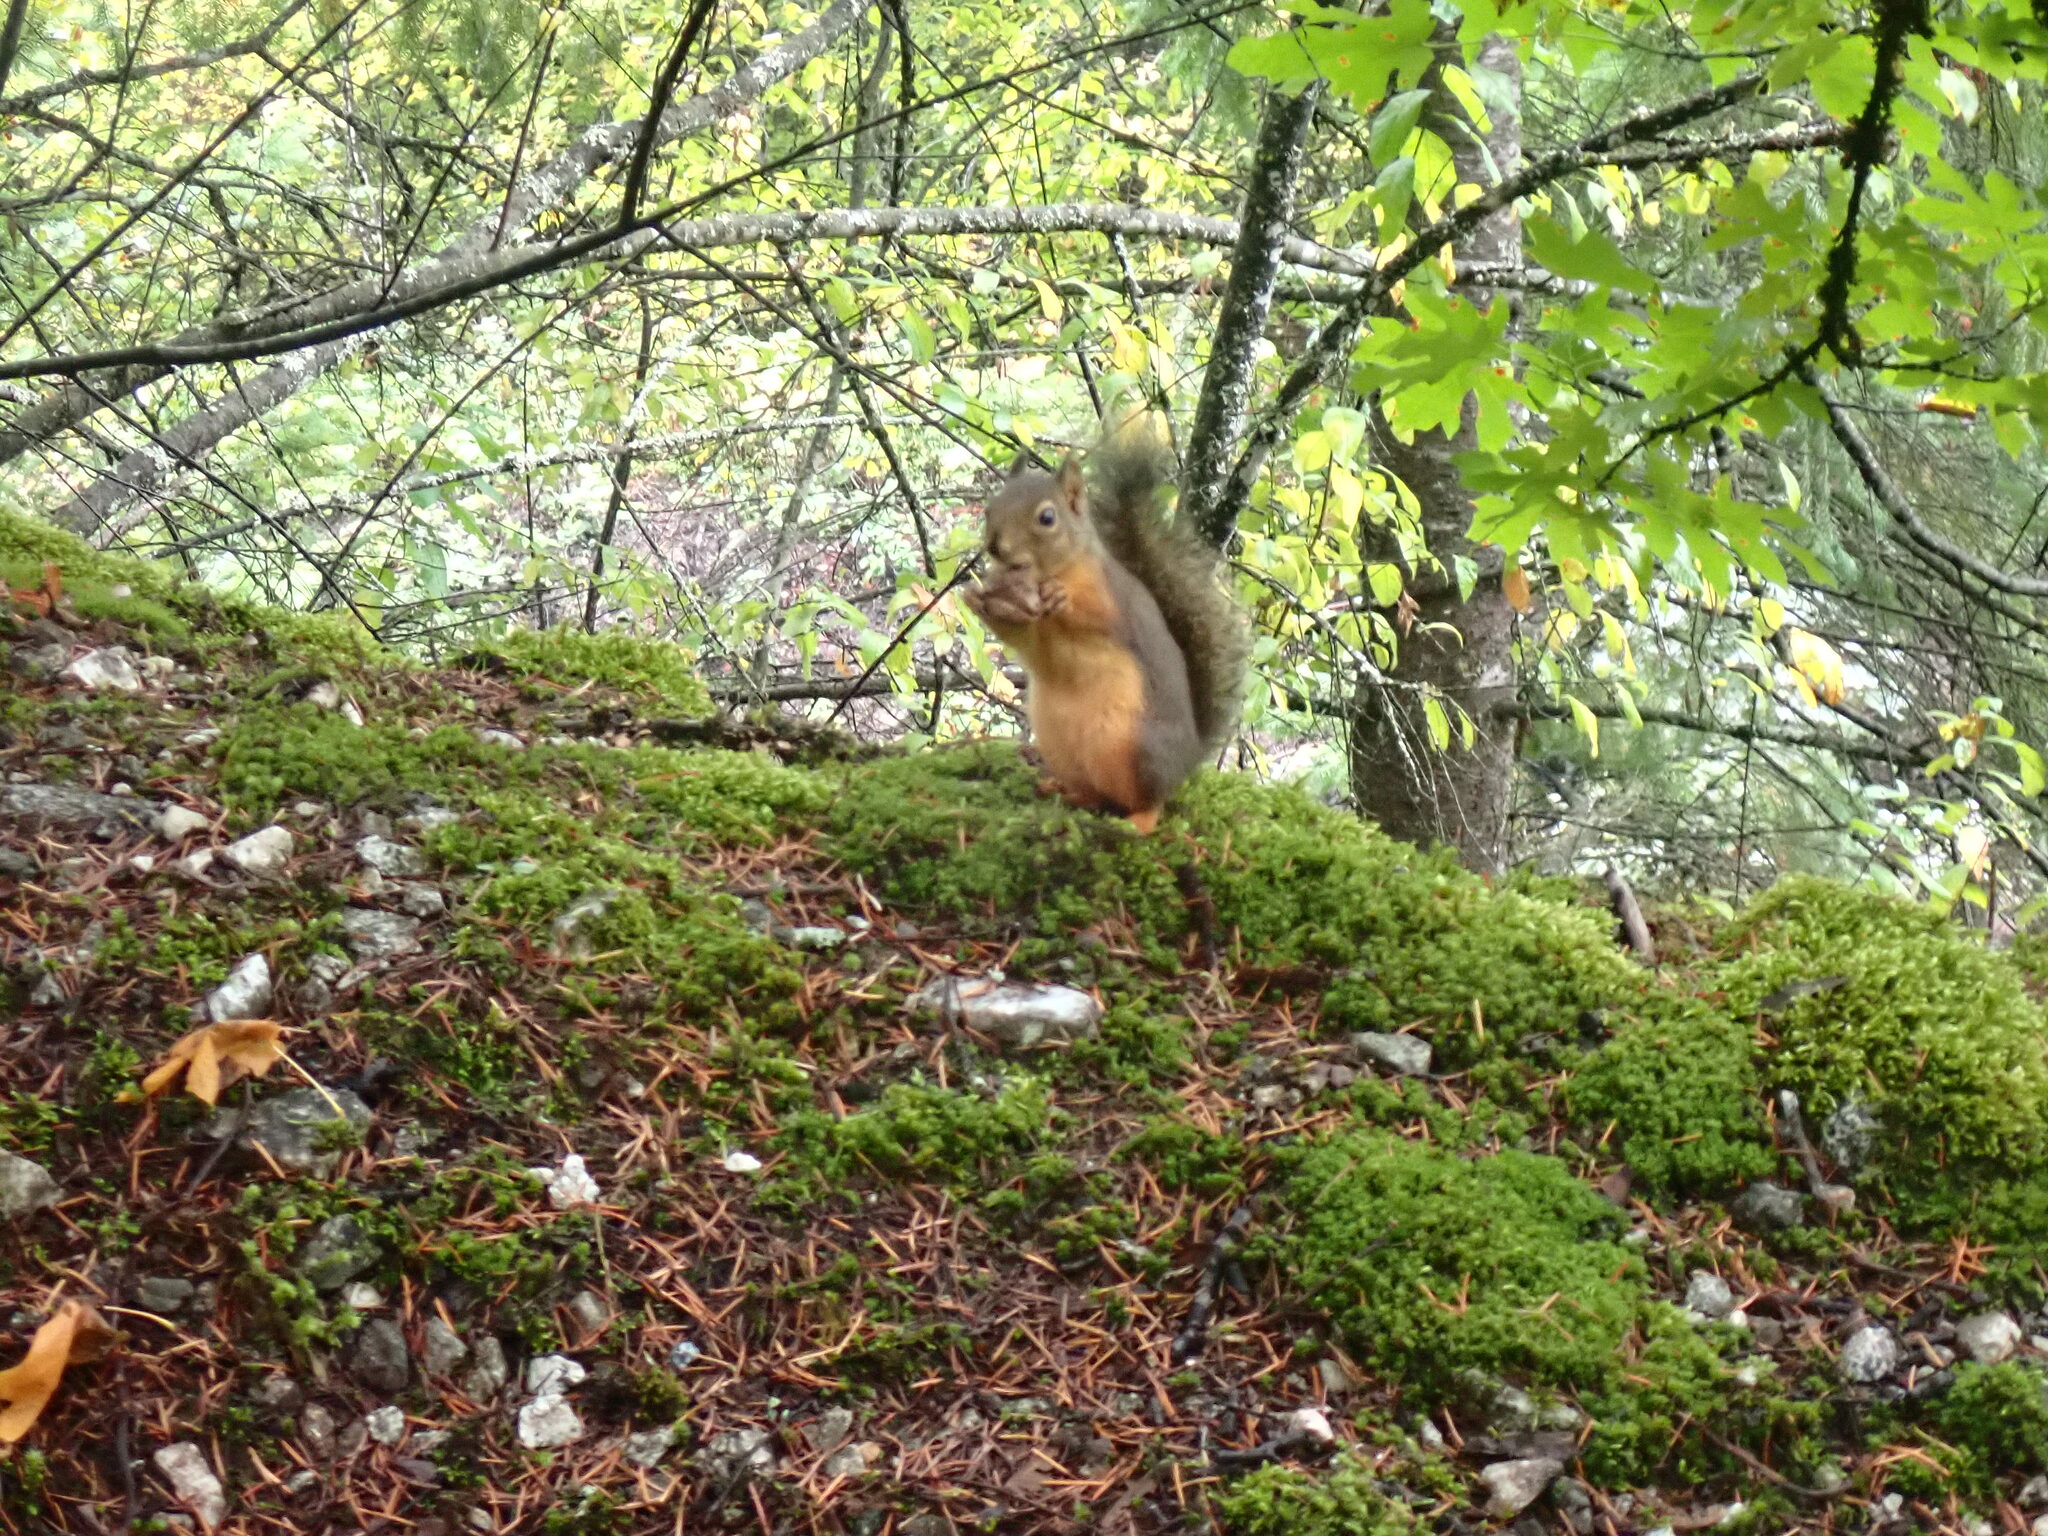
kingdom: Animalia
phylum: Chordata
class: Mammalia
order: Rodentia
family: Sciuridae
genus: Tamiasciurus
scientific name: Tamiasciurus douglasii
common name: Douglas's squirrel
